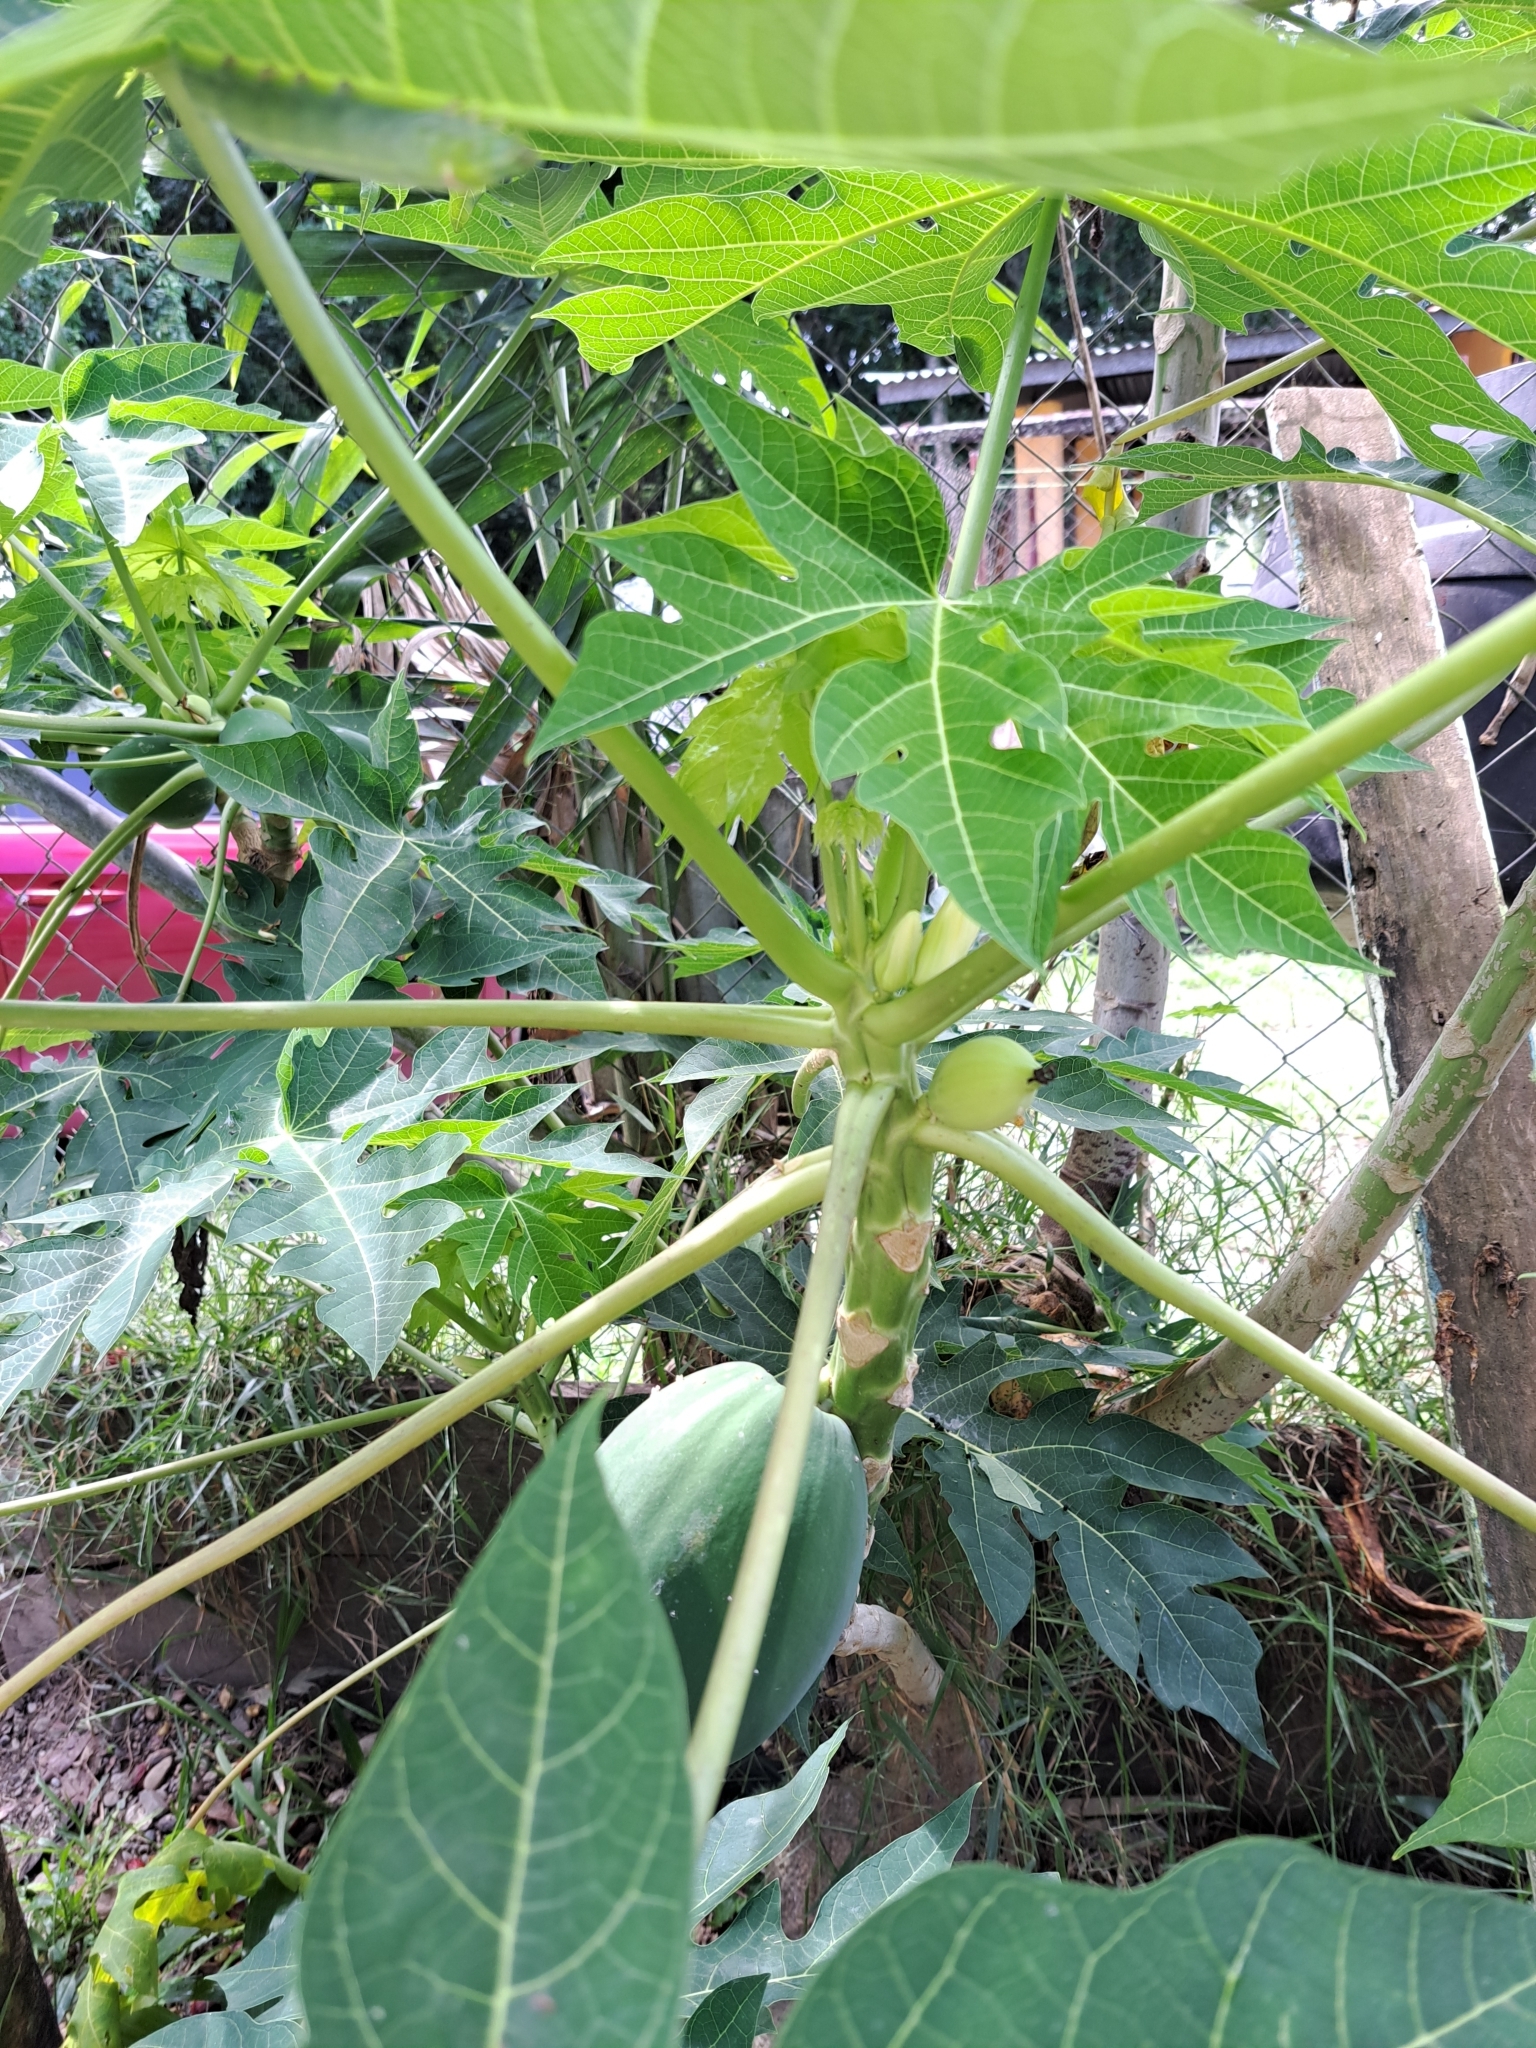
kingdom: Plantae
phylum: Tracheophyta
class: Magnoliopsida
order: Brassicales
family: Caricaceae
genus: Carica
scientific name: Carica papaya
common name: Papaya
